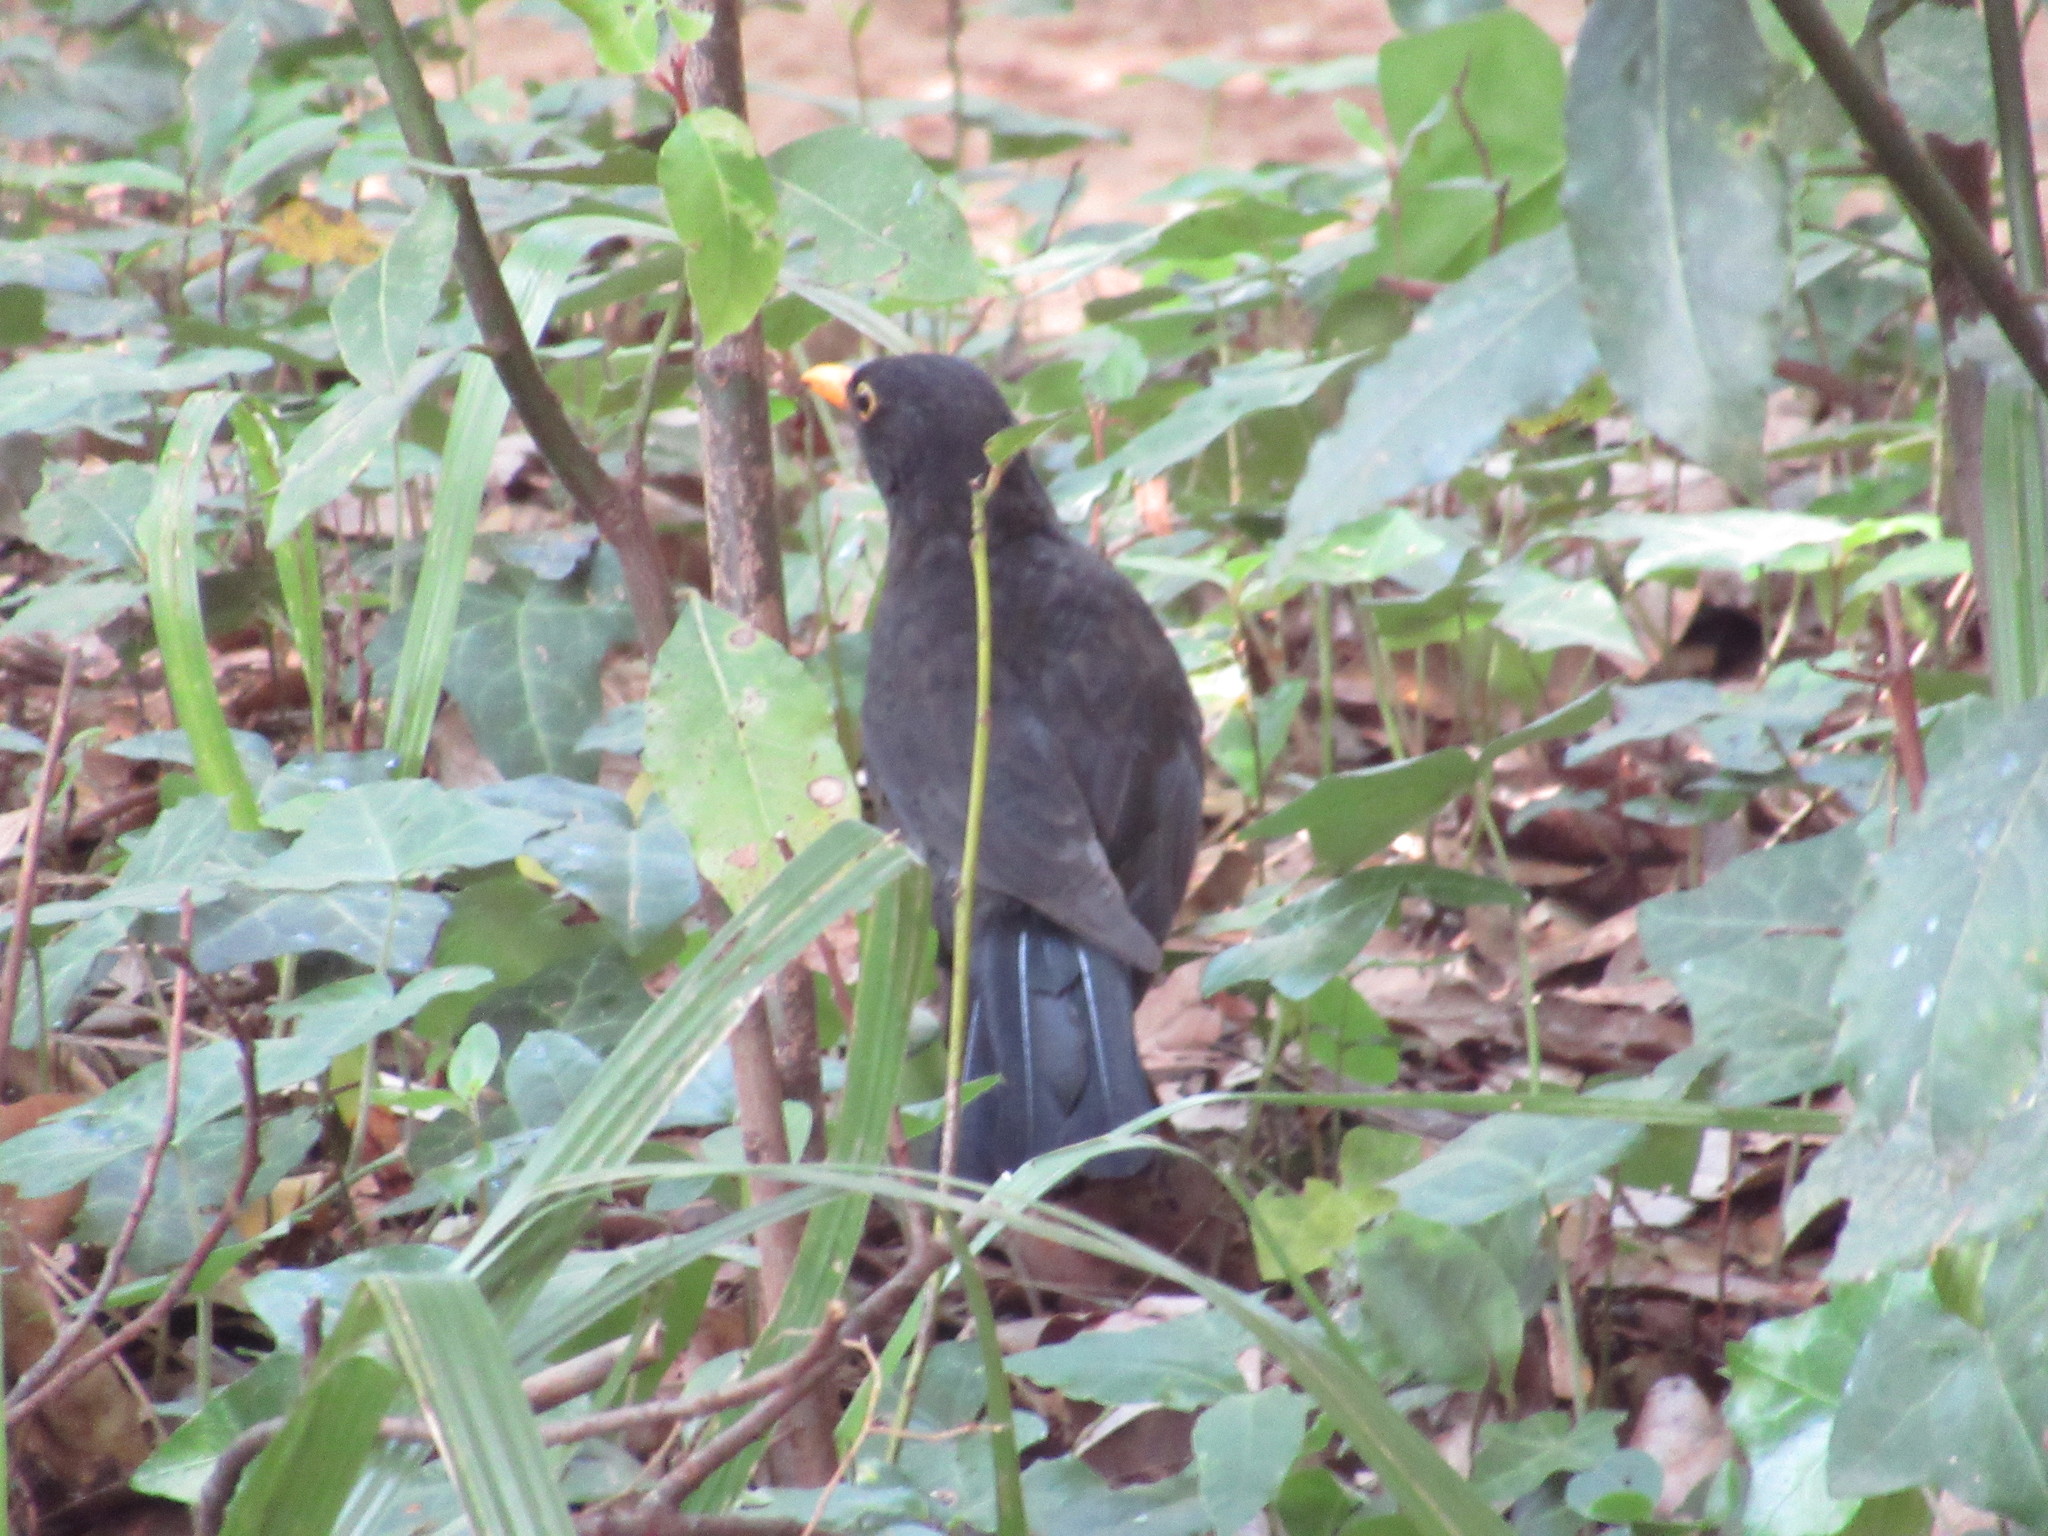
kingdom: Animalia
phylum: Chordata
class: Aves
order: Passeriformes
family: Turdidae
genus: Turdus
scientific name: Turdus merula
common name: Common blackbird
